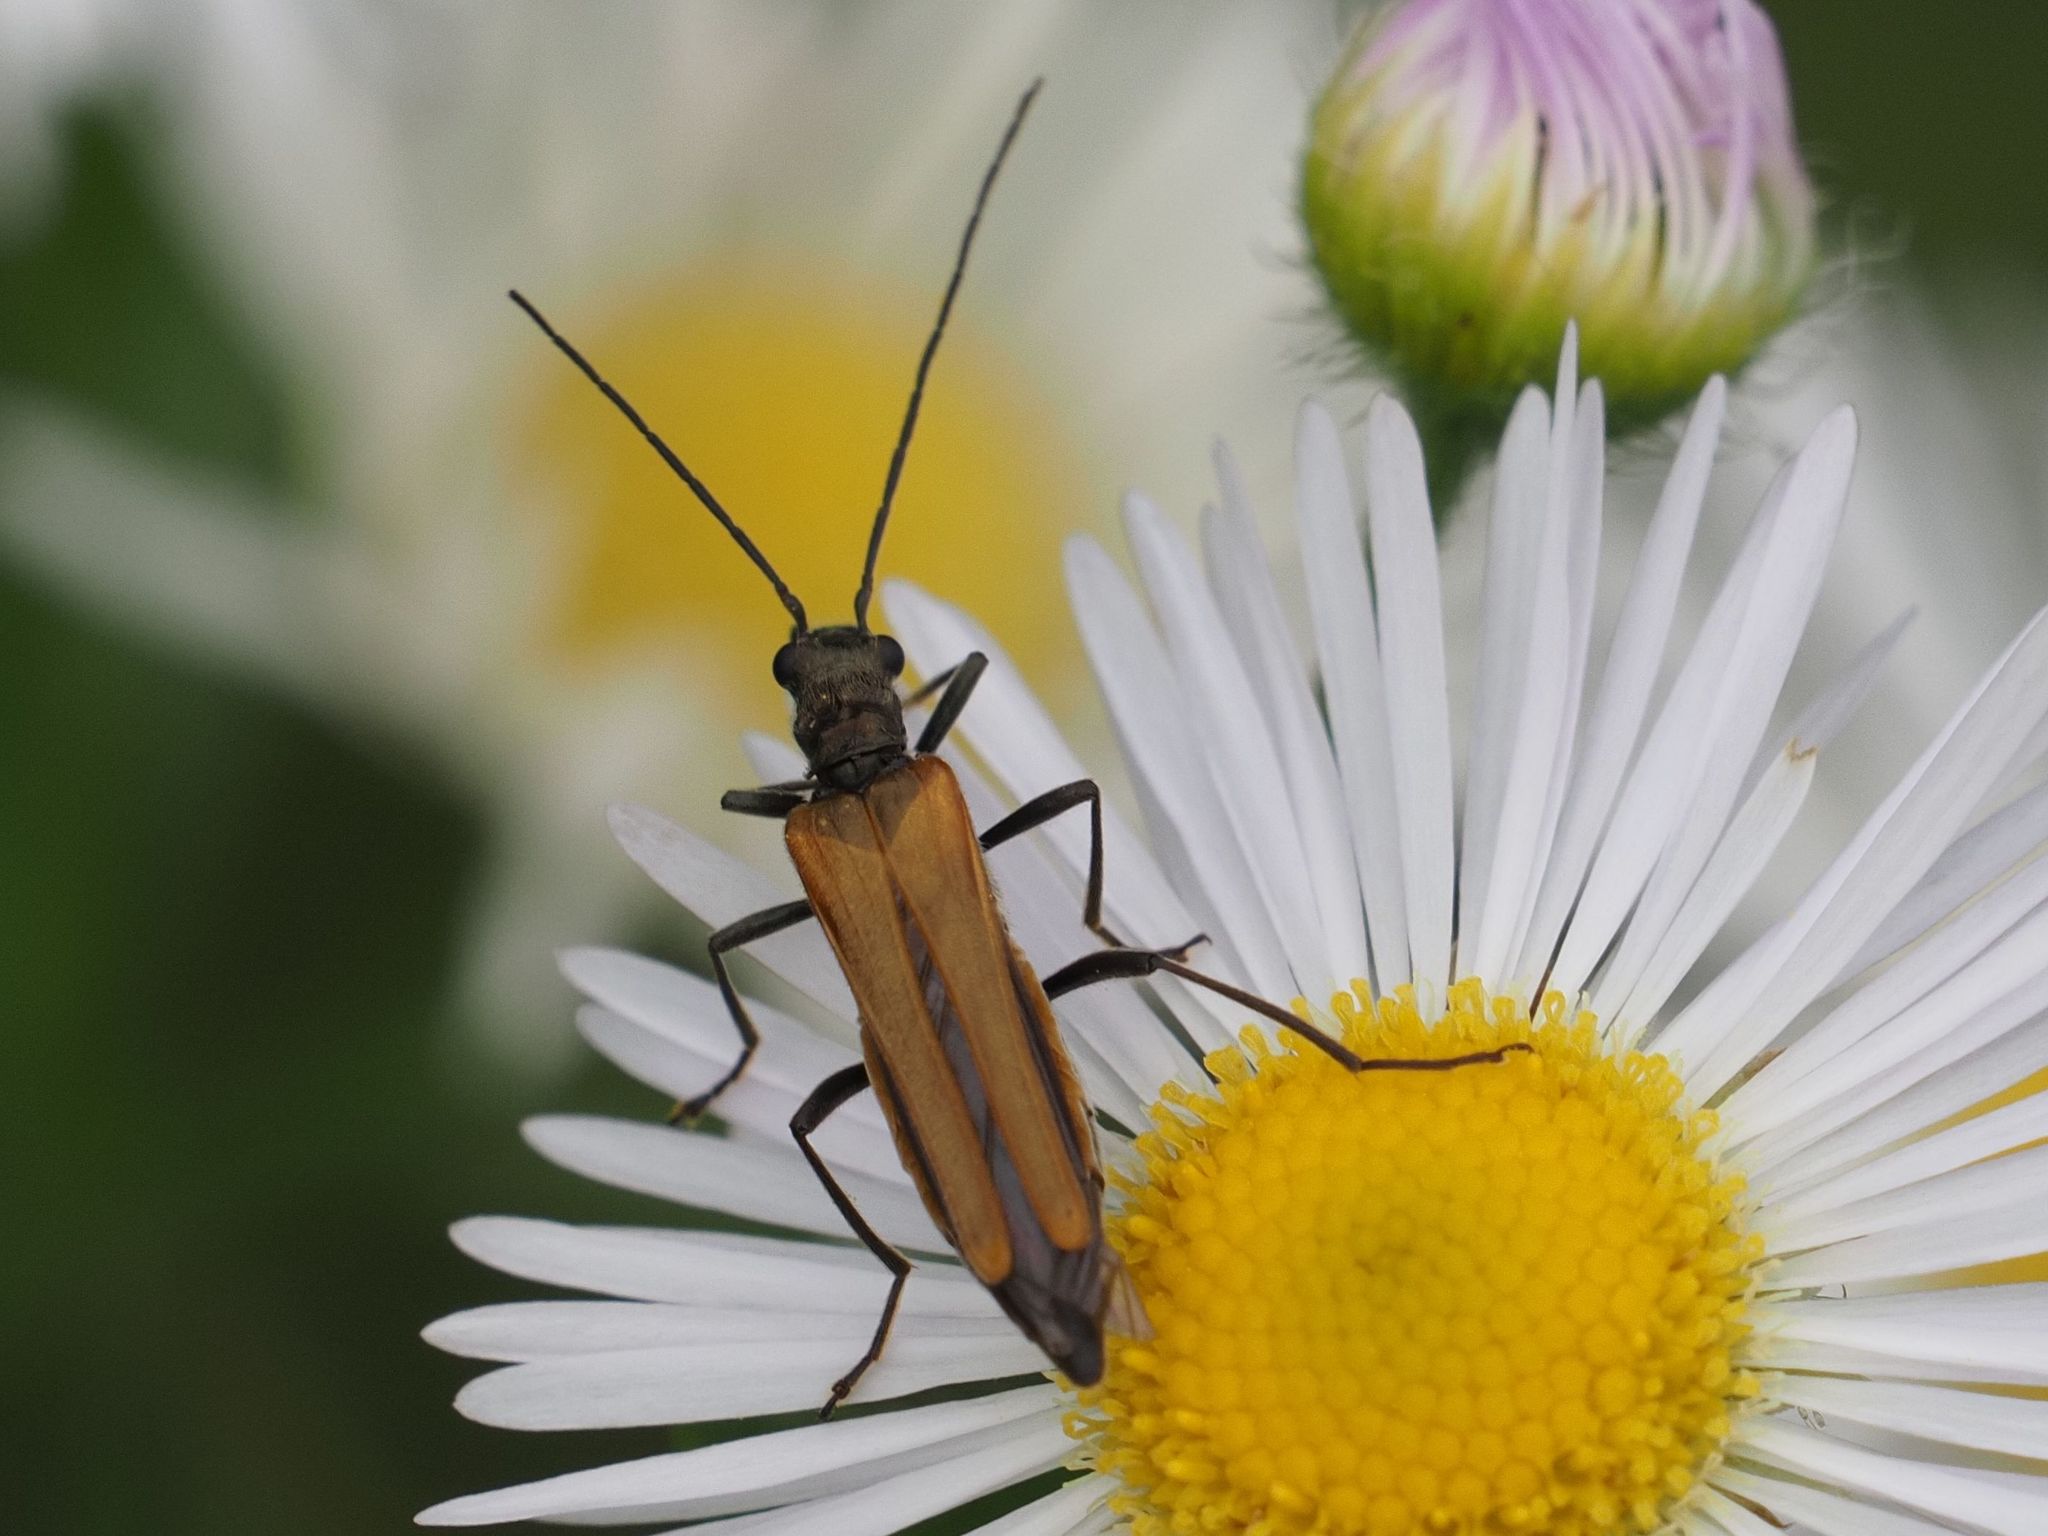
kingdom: Animalia
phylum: Arthropoda
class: Insecta
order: Coleoptera
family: Oedemeridae
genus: Oedemera
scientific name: Oedemera femorata
